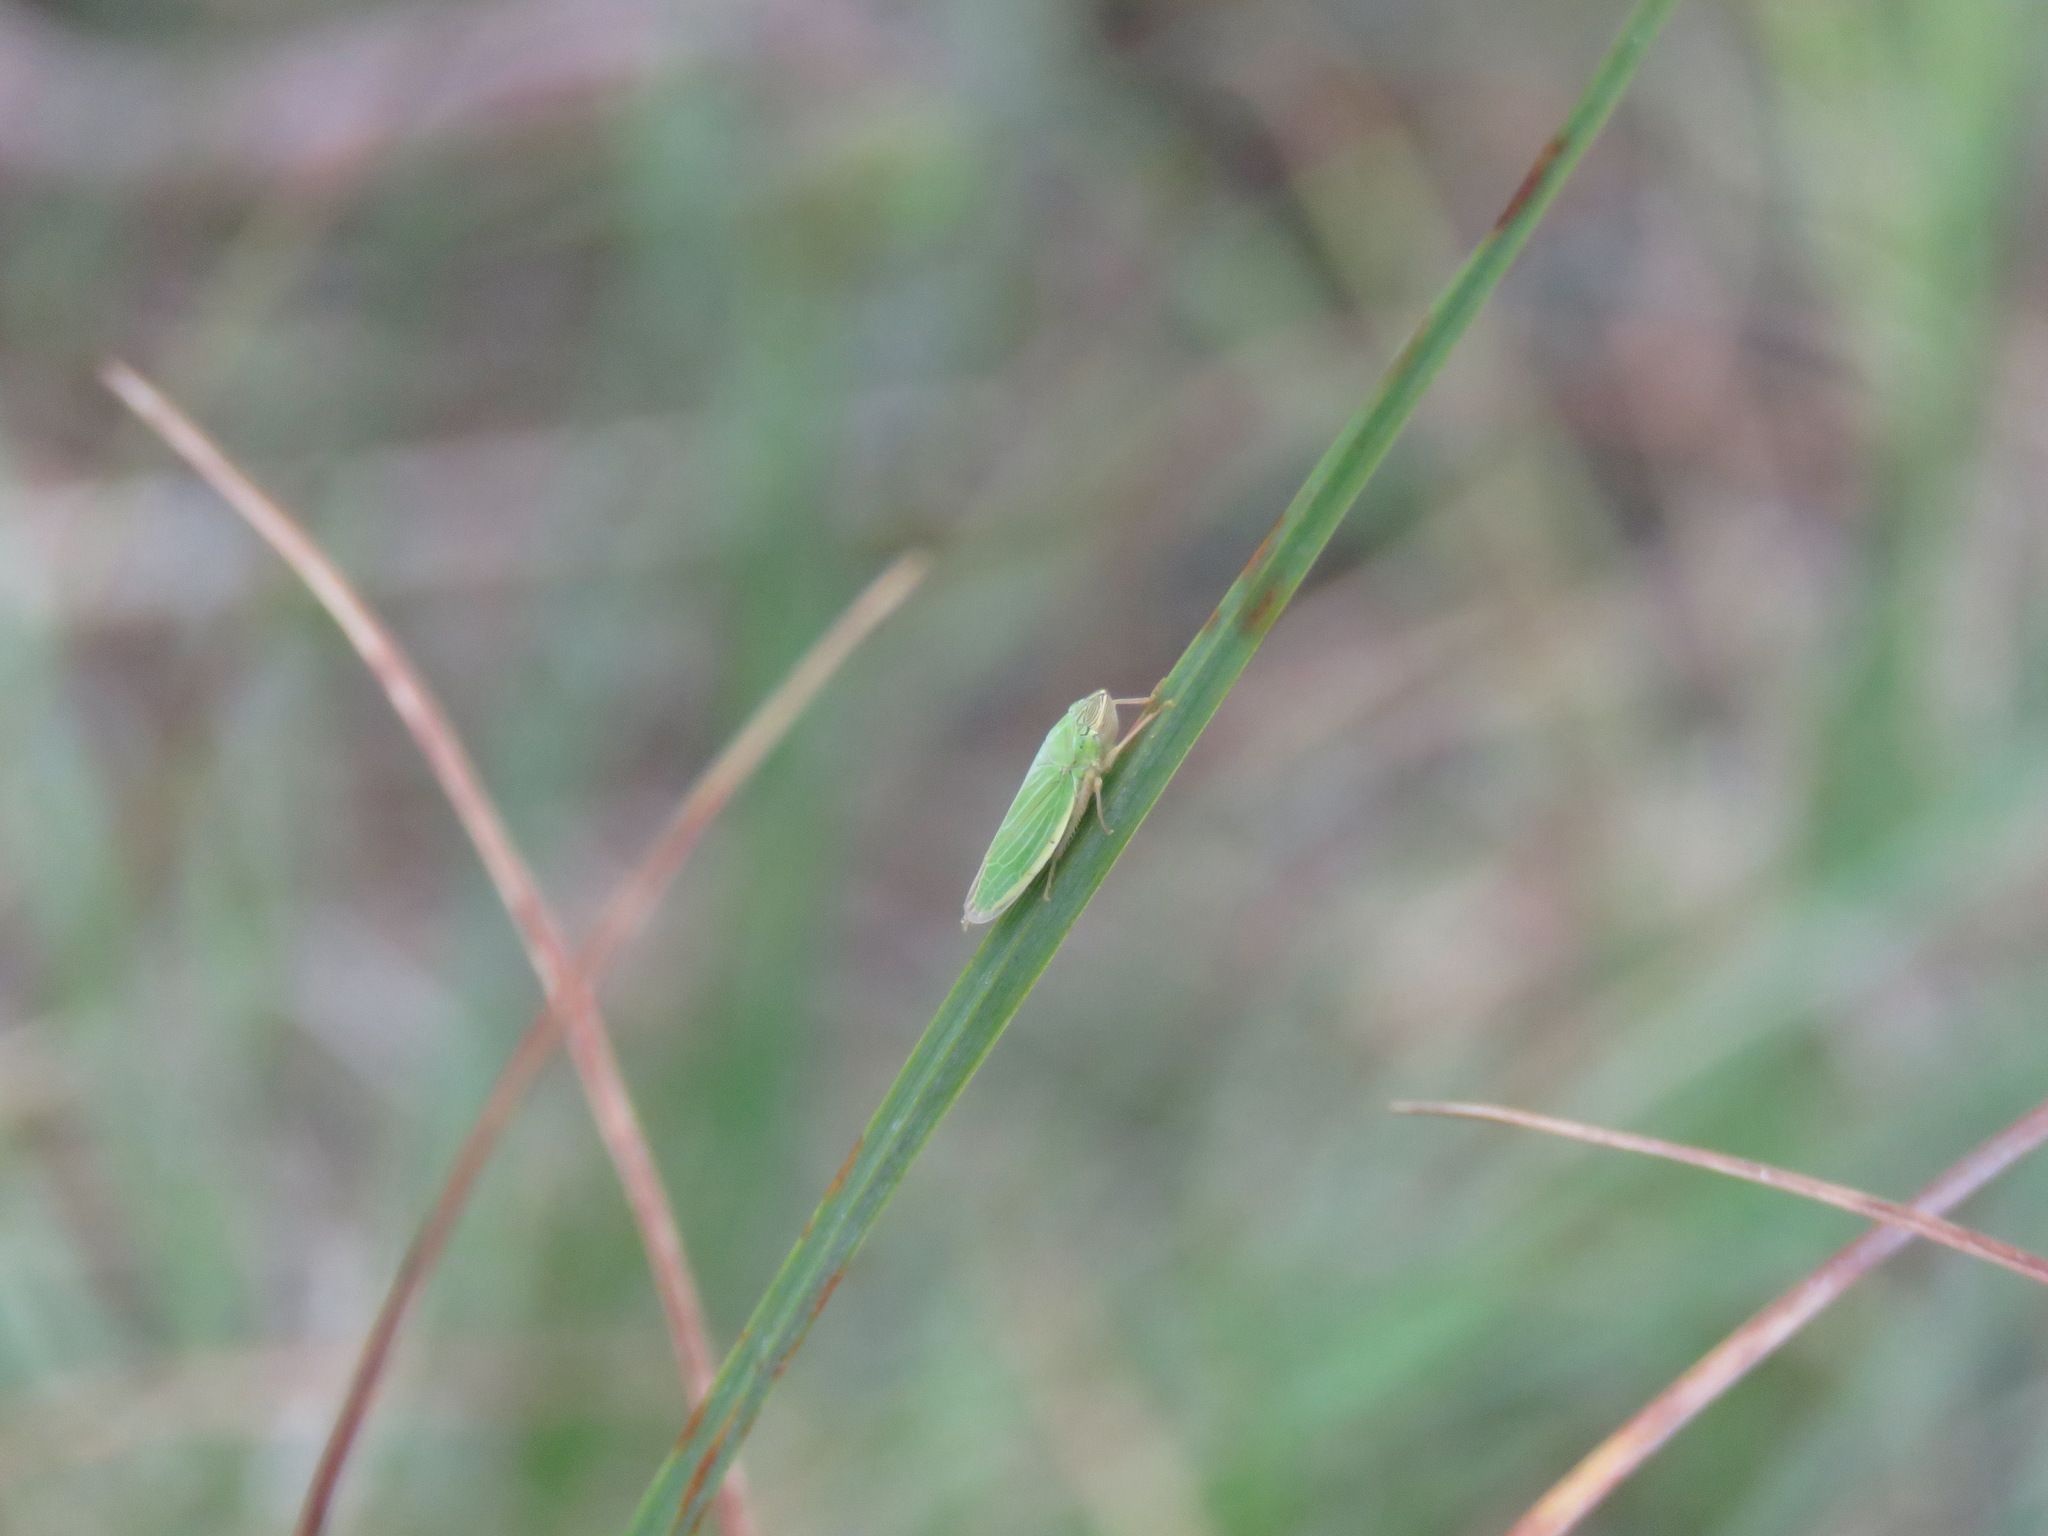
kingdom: Animalia
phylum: Arthropoda
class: Insecta
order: Hemiptera
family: Cicadellidae
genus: Draeculacephala
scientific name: Draeculacephala angulifera
